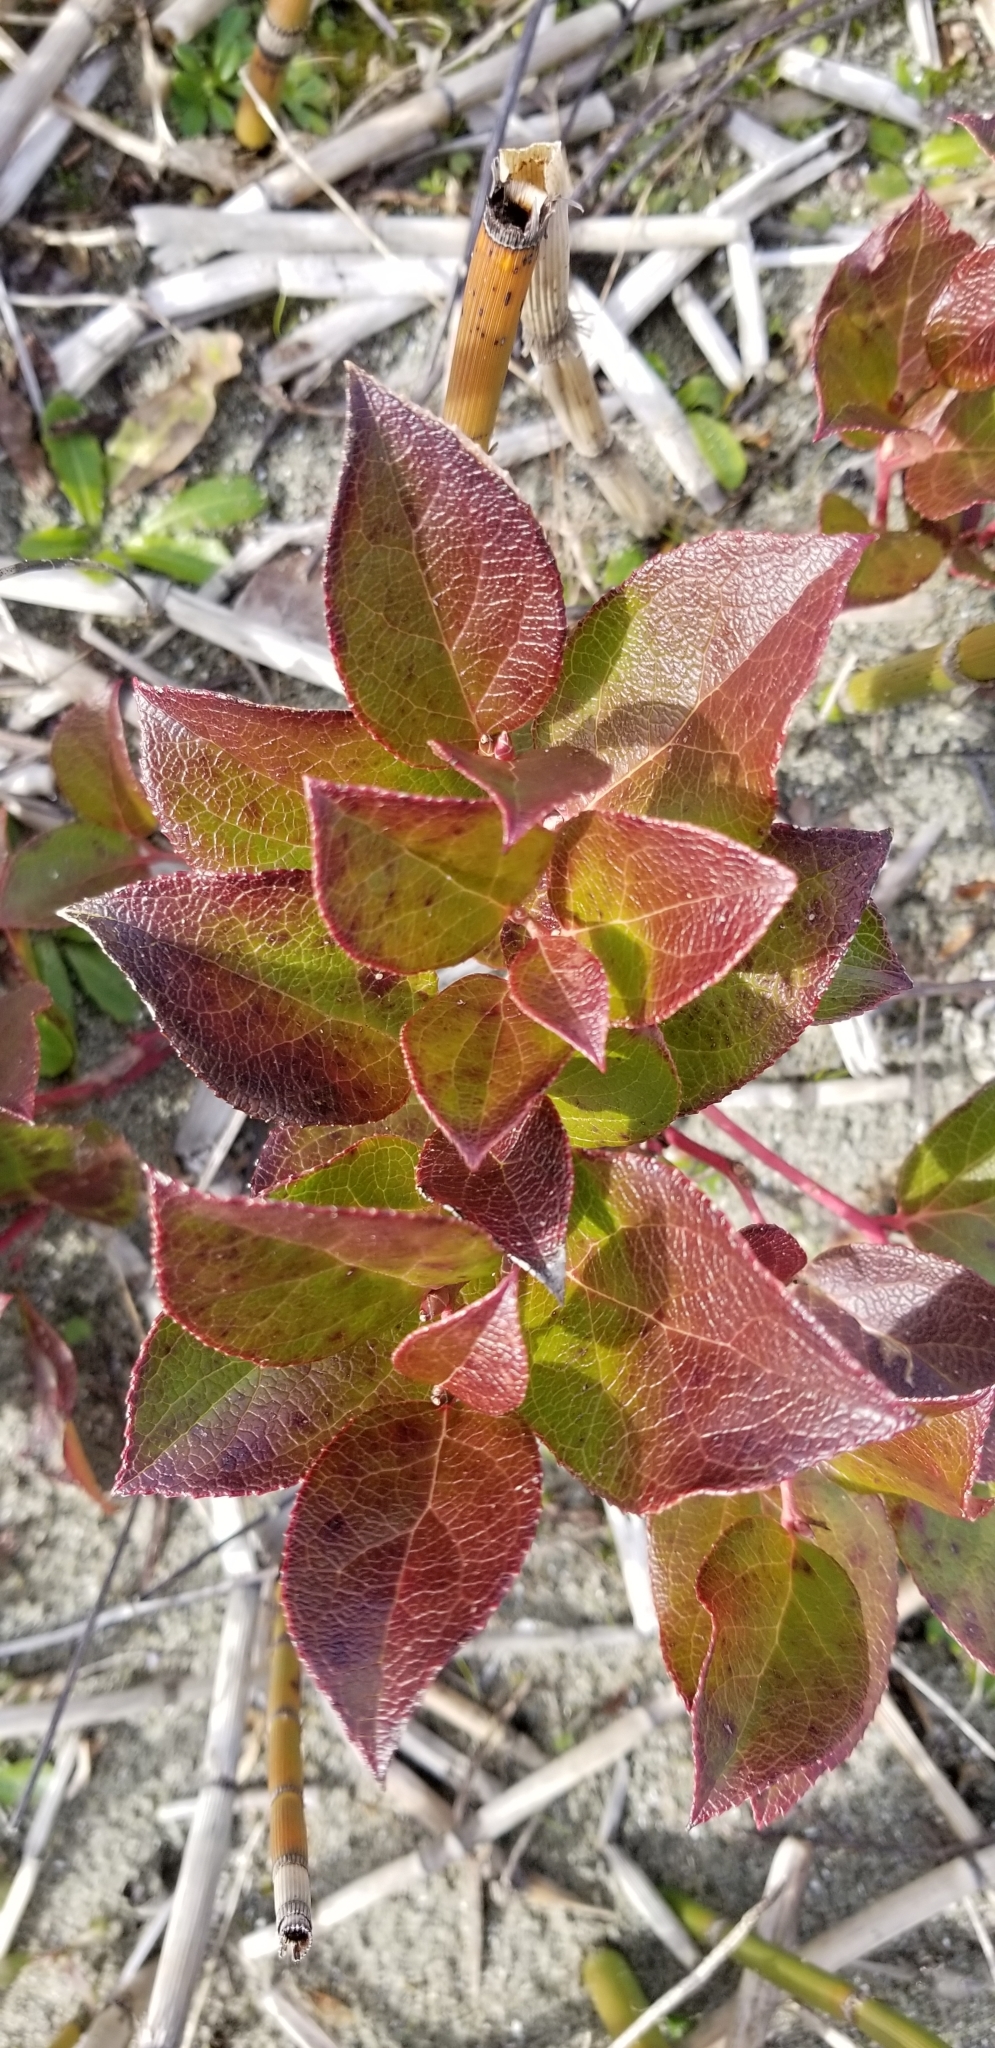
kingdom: Plantae
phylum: Tracheophyta
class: Magnoliopsida
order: Ericales
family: Ericaceae
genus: Gaultheria
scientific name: Gaultheria shallon
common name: Shallon
